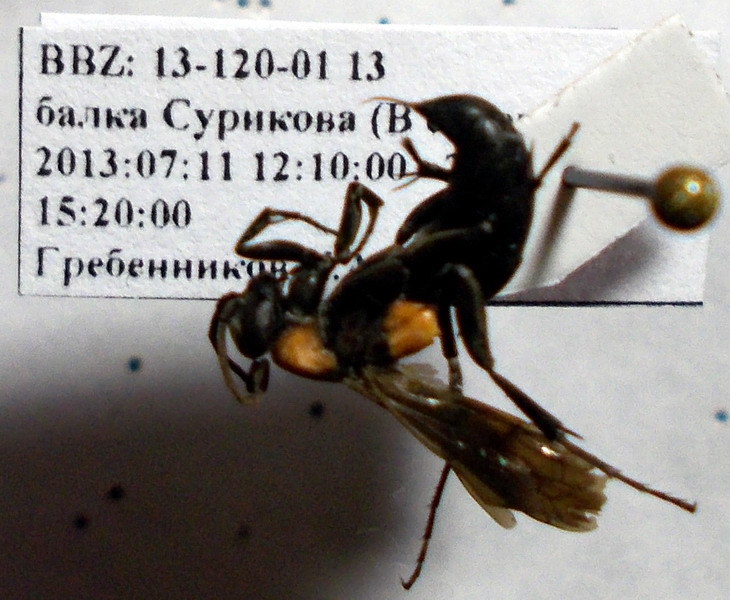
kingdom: Animalia
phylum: Arthropoda
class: Insecta
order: Hymenoptera
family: Pompilidae
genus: Eoferreola
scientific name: Eoferreola manticata
